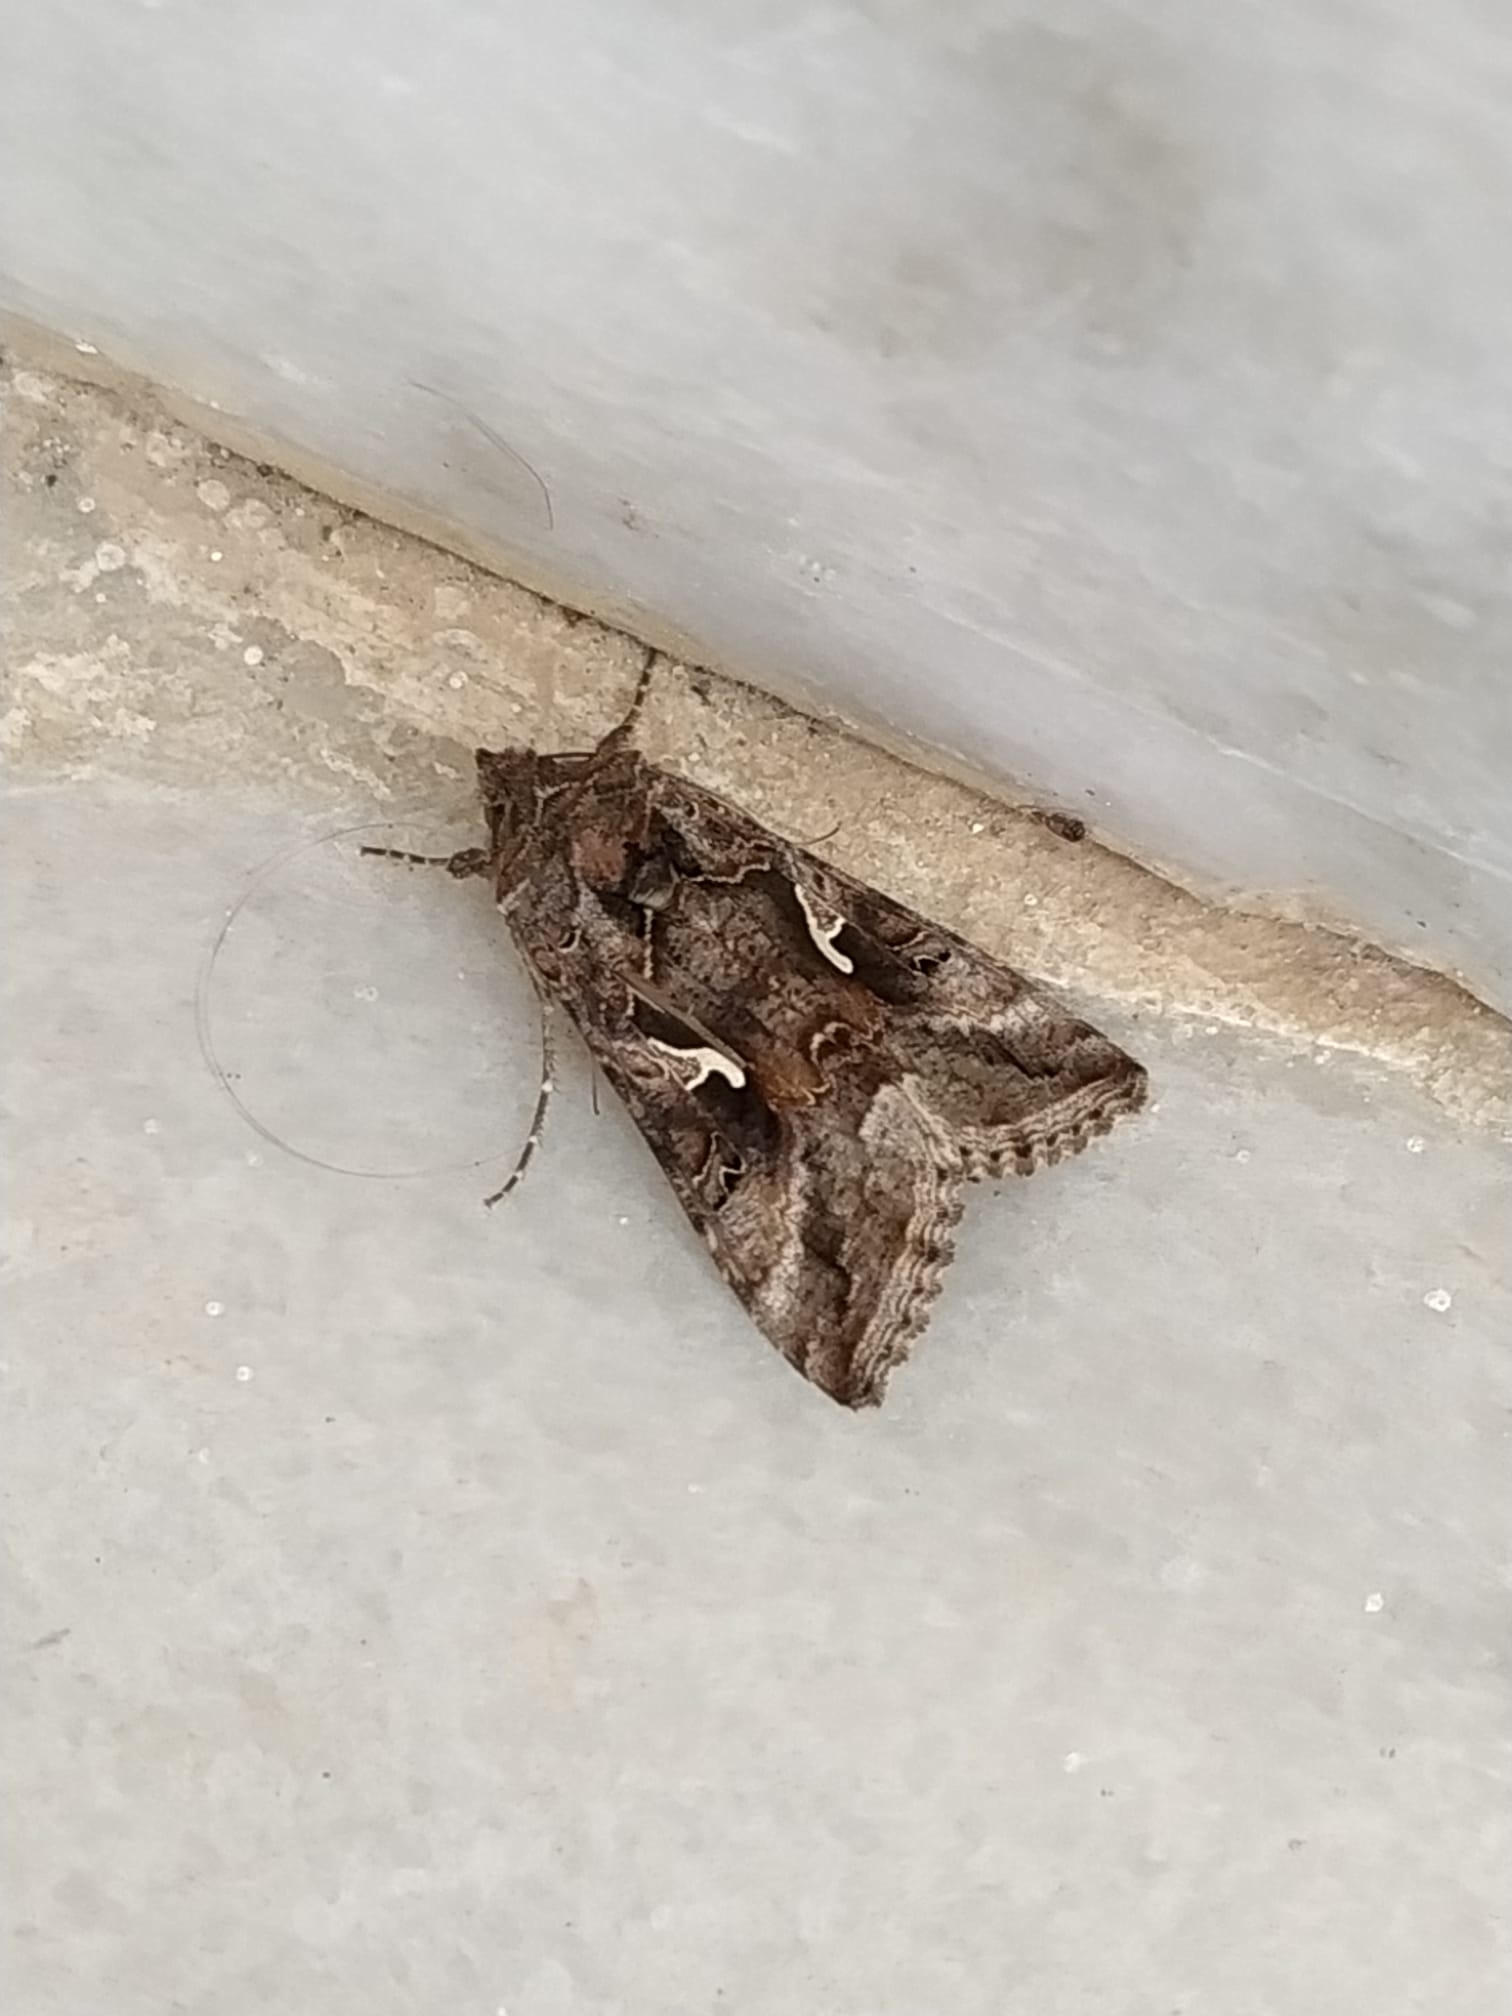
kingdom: Animalia
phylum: Arthropoda
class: Insecta
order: Lepidoptera
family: Noctuidae
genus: Autographa
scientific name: Autographa gamma
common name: Silver y
